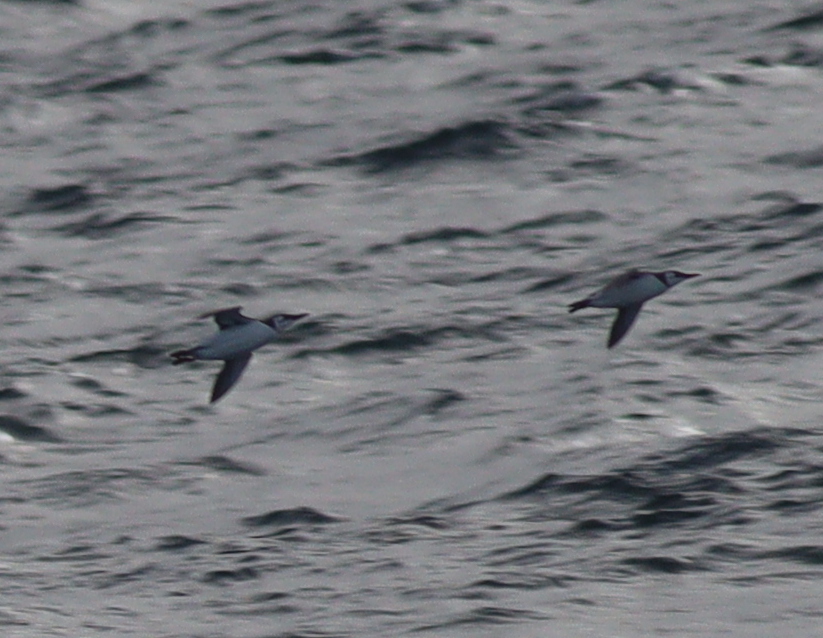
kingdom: Animalia
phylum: Chordata
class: Aves
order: Charadriiformes
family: Alcidae
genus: Uria
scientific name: Uria aalge
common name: Common murre
